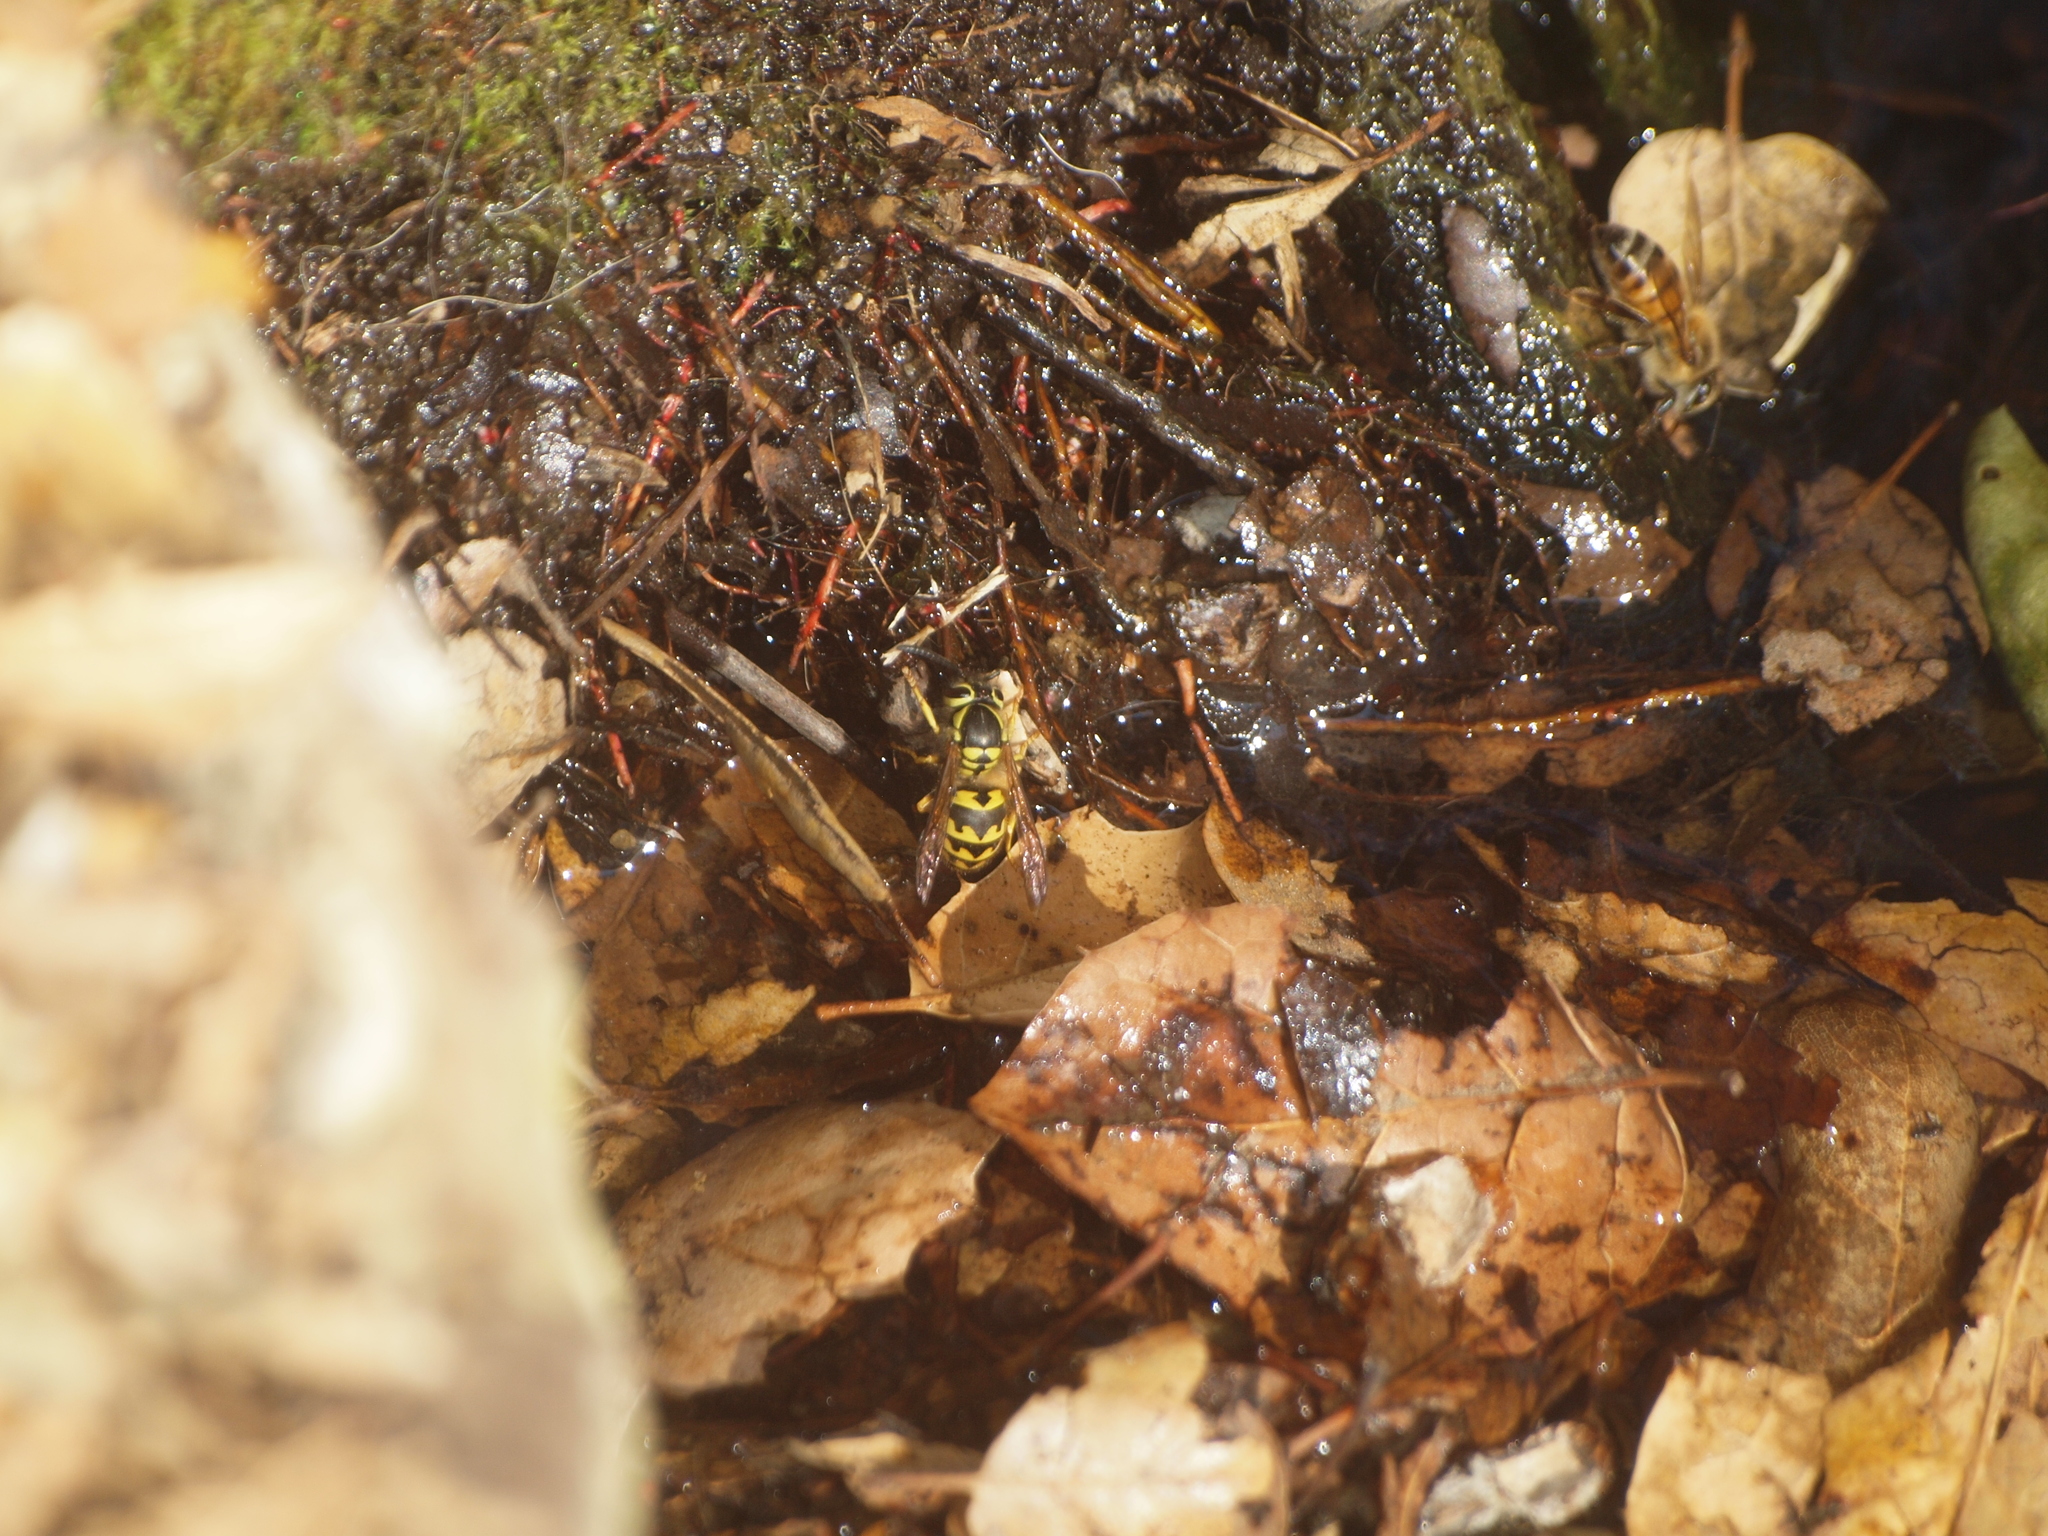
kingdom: Animalia
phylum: Arthropoda
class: Insecta
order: Hymenoptera
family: Vespidae
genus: Vespula
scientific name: Vespula pensylvanica
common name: Western yellowjacket
